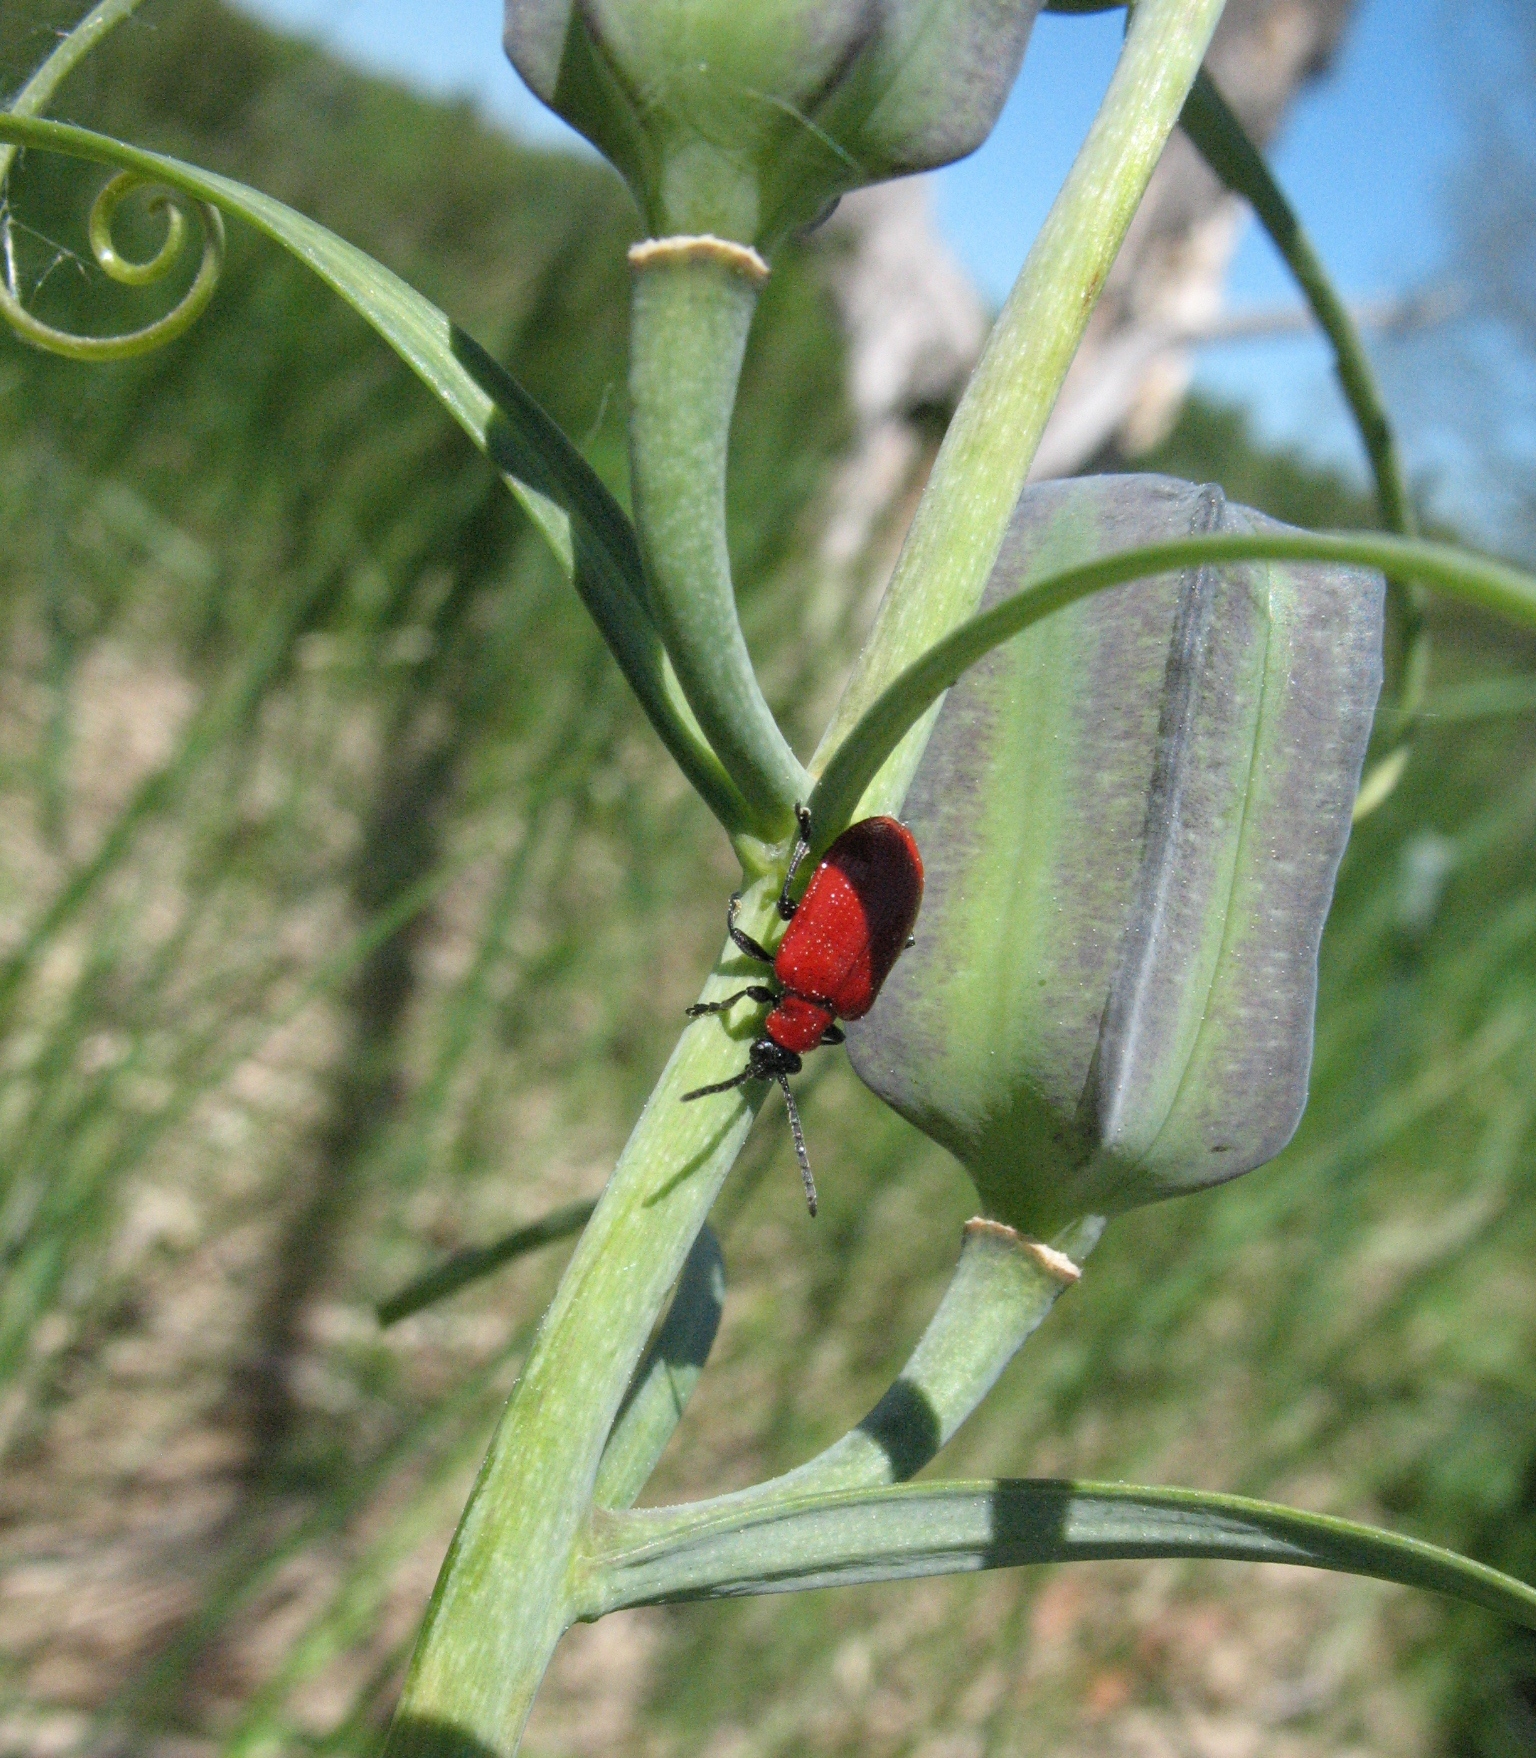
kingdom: Animalia
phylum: Arthropoda
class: Insecta
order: Coleoptera
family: Chrysomelidae
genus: Lilioceris
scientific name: Lilioceris lilii
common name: Lily beetle
